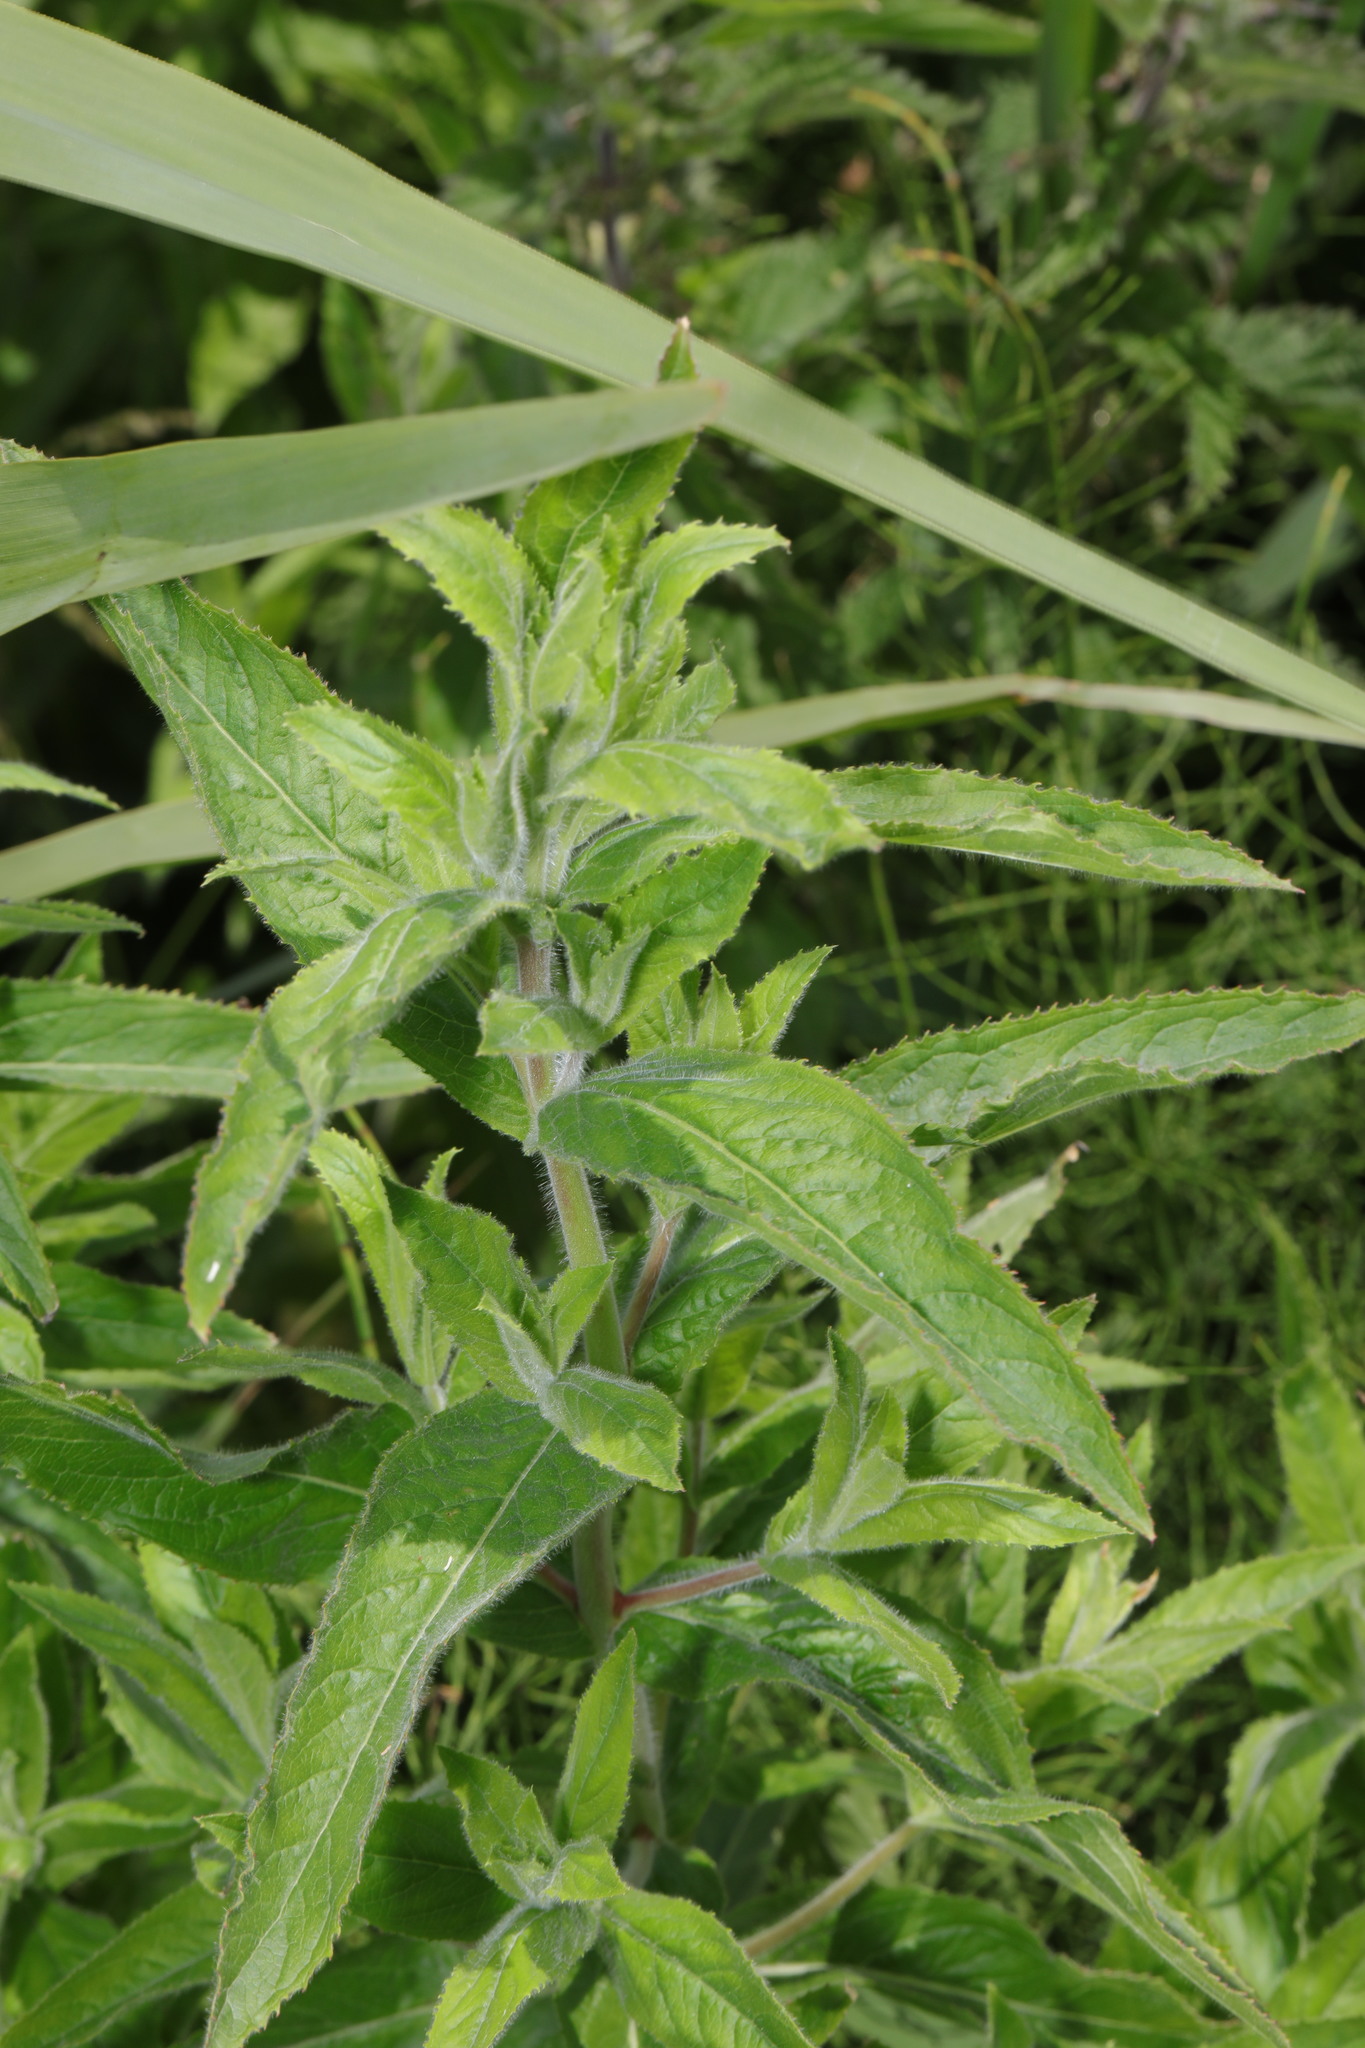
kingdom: Plantae
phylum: Tracheophyta
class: Magnoliopsida
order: Myrtales
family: Onagraceae
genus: Epilobium
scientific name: Epilobium hirsutum
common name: Great willowherb
